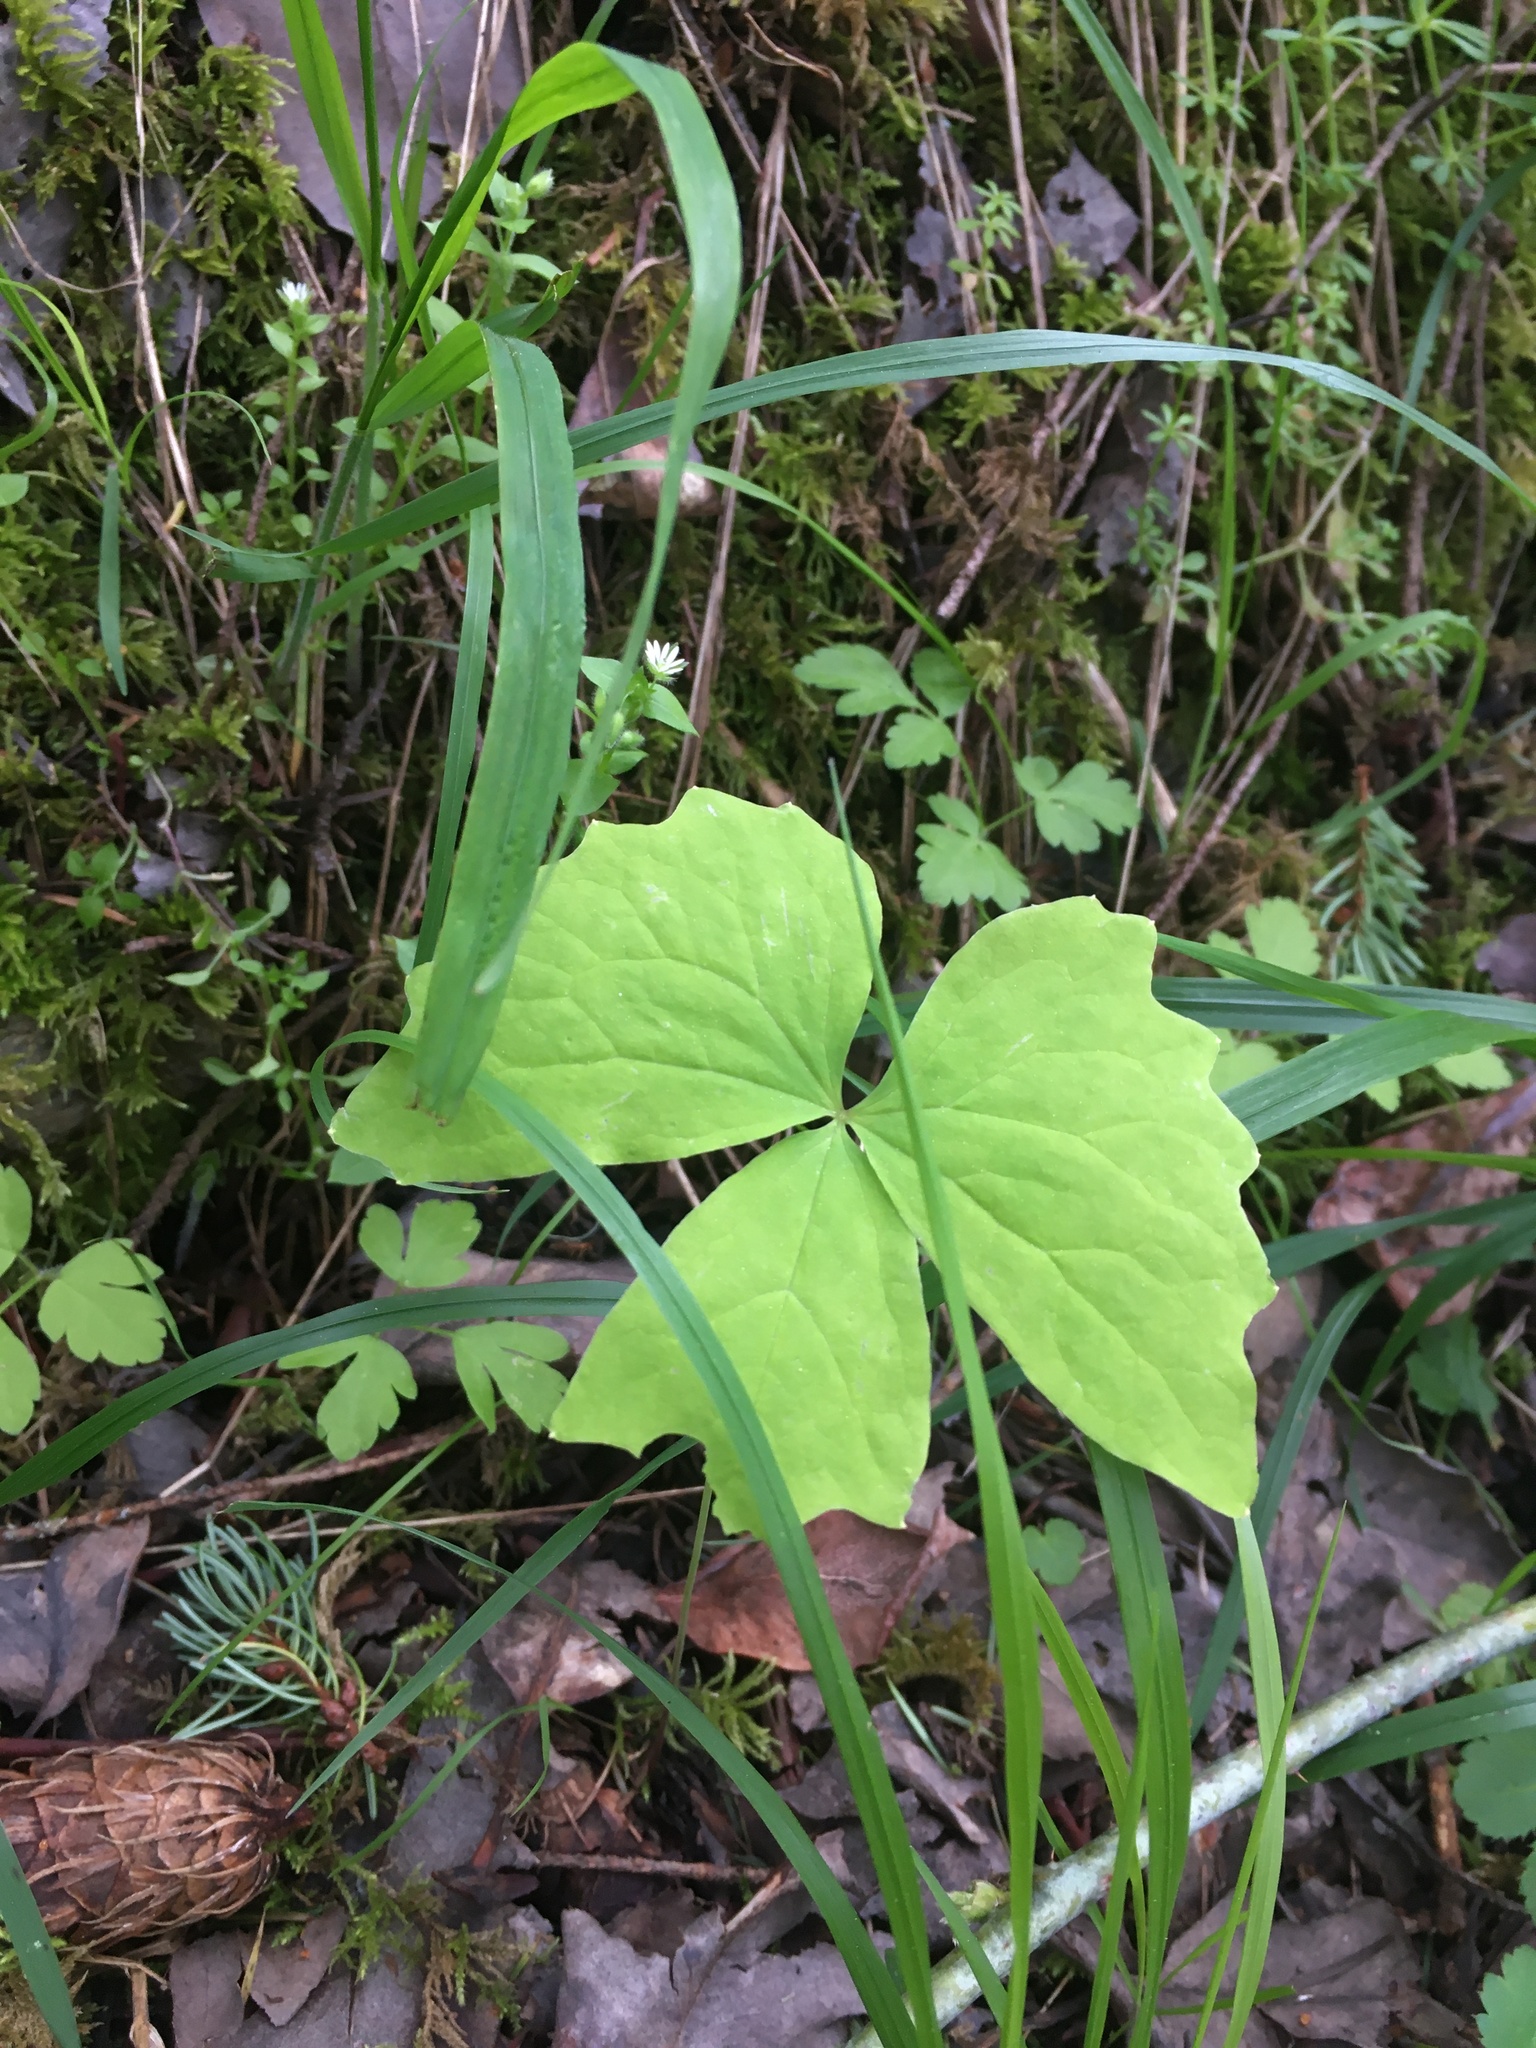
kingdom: Plantae
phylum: Tracheophyta
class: Magnoliopsida
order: Ranunculales
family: Berberidaceae
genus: Achlys
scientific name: Achlys triphylla
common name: Vanilla-leaf
